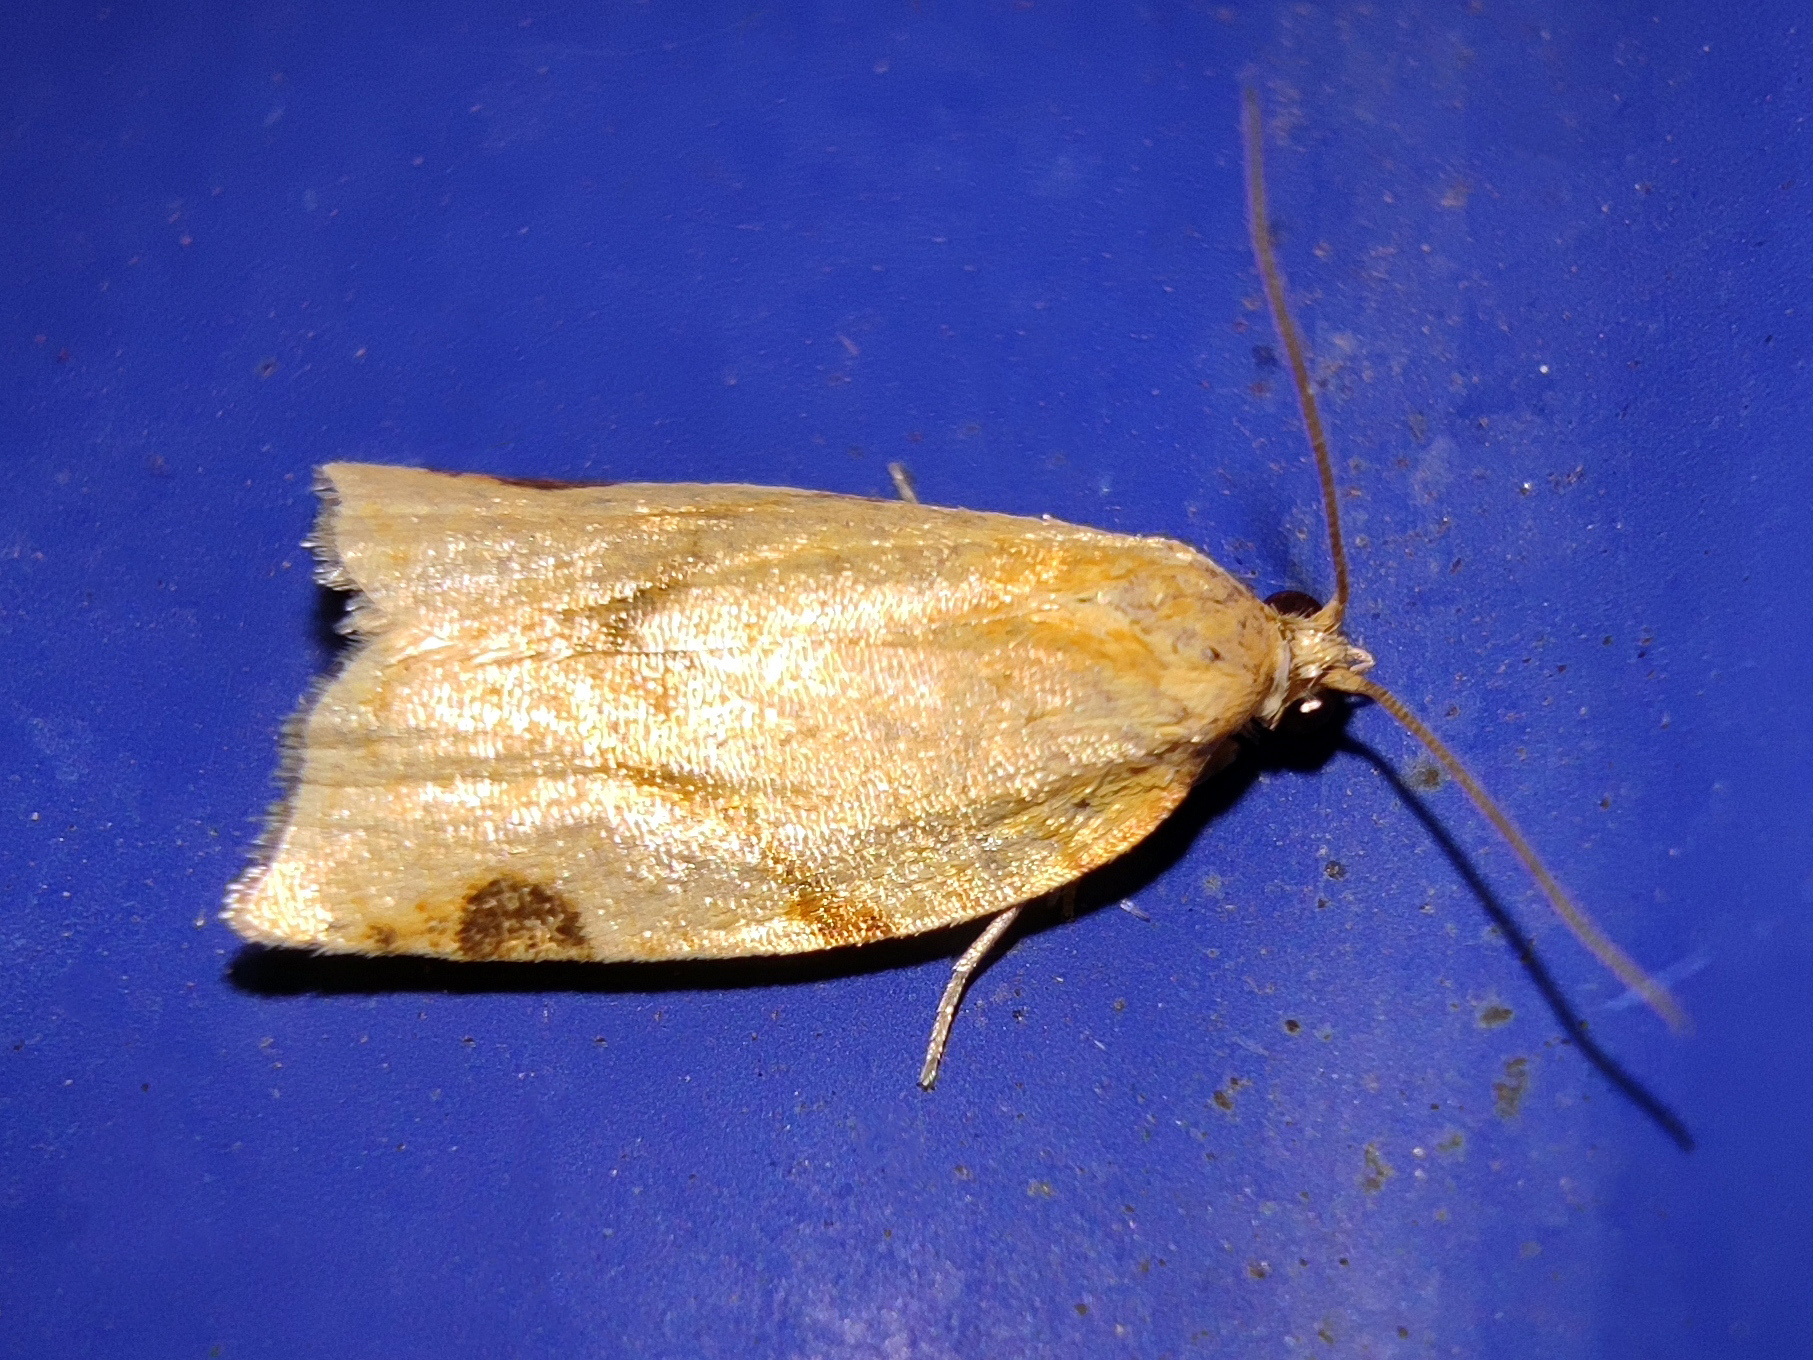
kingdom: Animalia
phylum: Arthropoda
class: Insecta
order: Lepidoptera
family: Tortricidae
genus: Paramesia
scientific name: Paramesia gnomana
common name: Small straw twist
